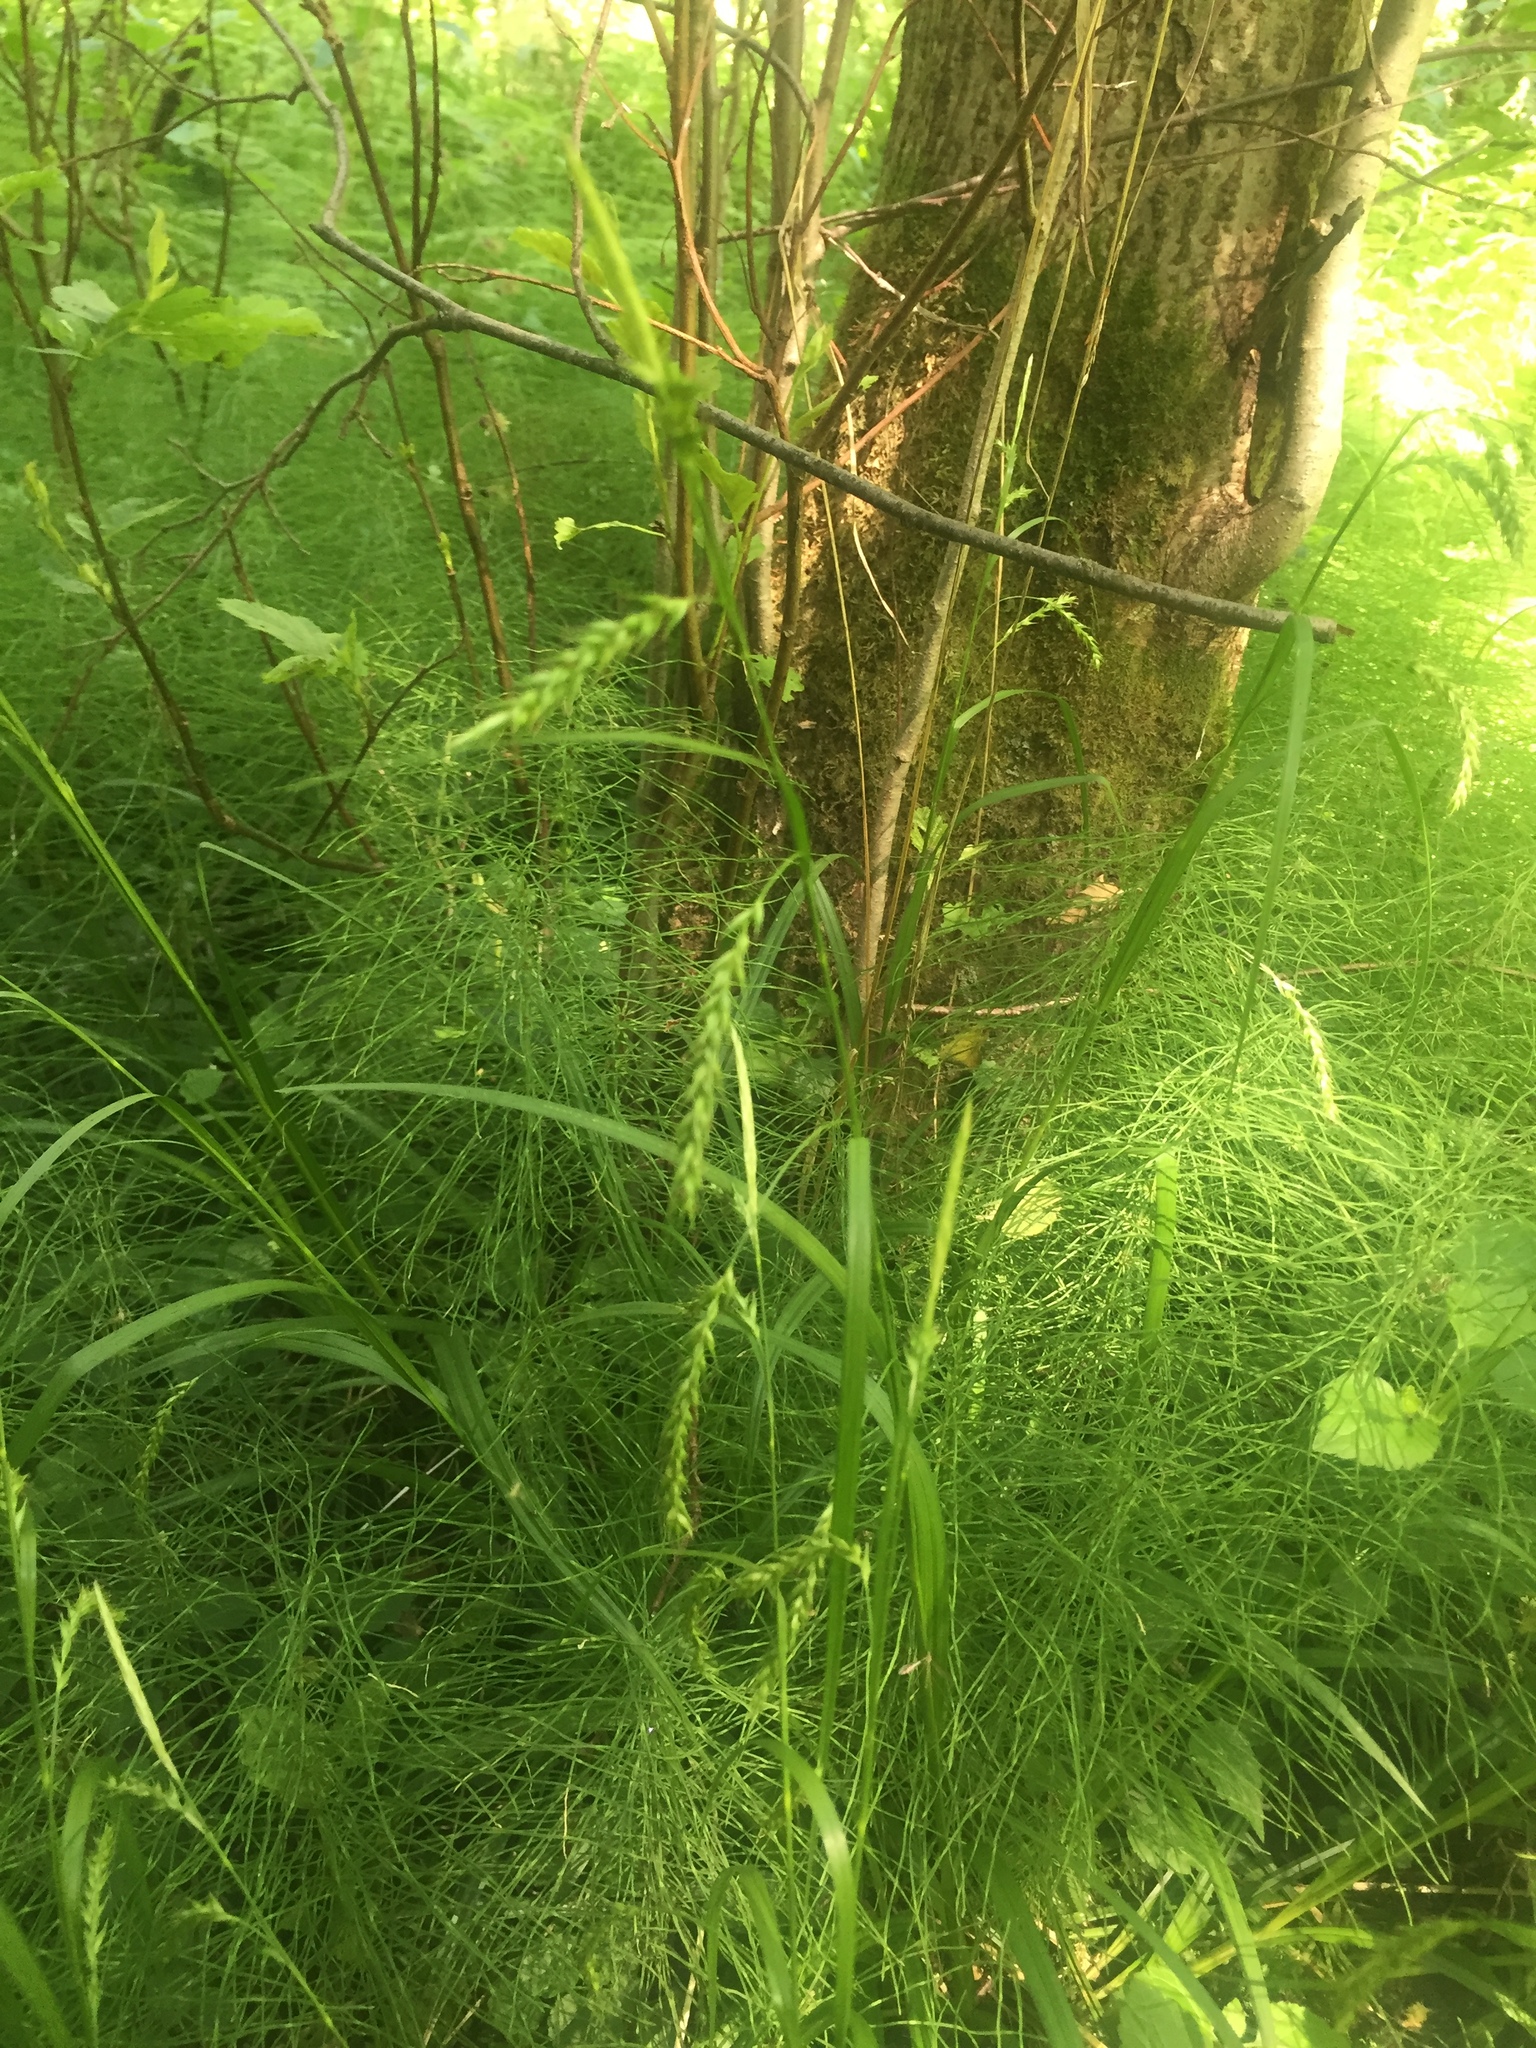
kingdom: Plantae
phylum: Tracheophyta
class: Liliopsida
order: Poales
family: Cyperaceae
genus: Carex
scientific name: Carex sylvatica
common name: Wood-sedge
